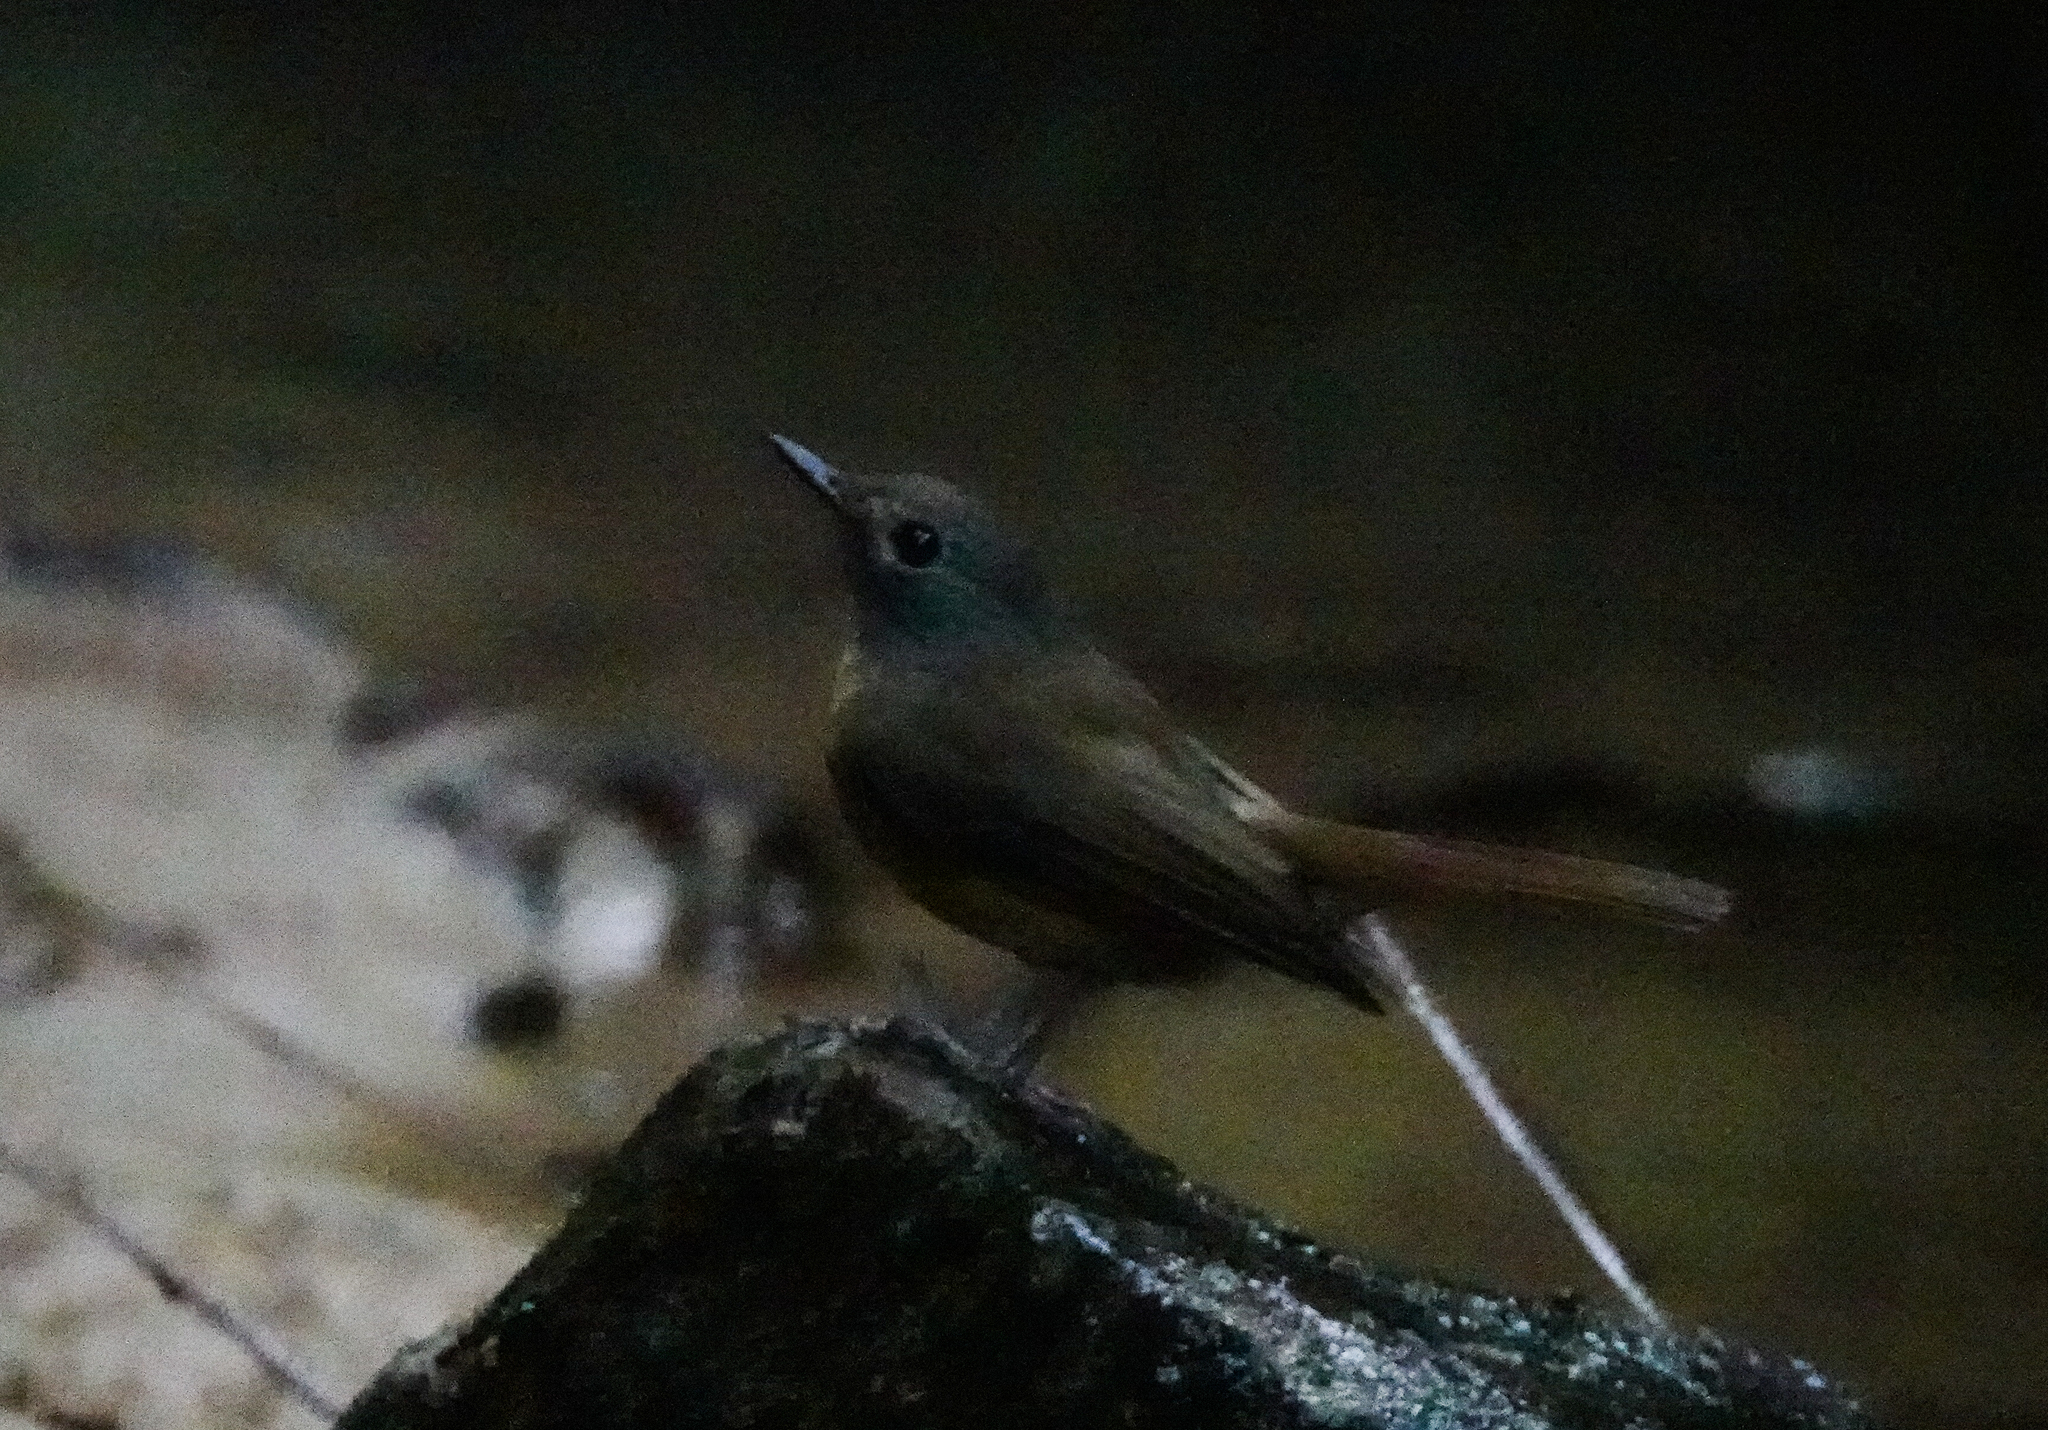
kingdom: Animalia
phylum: Chordata
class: Aves
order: Passeriformes
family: Muscicapidae
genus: Cyornis
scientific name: Cyornis poliogenys
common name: Pale-chinned blue flycatcher
